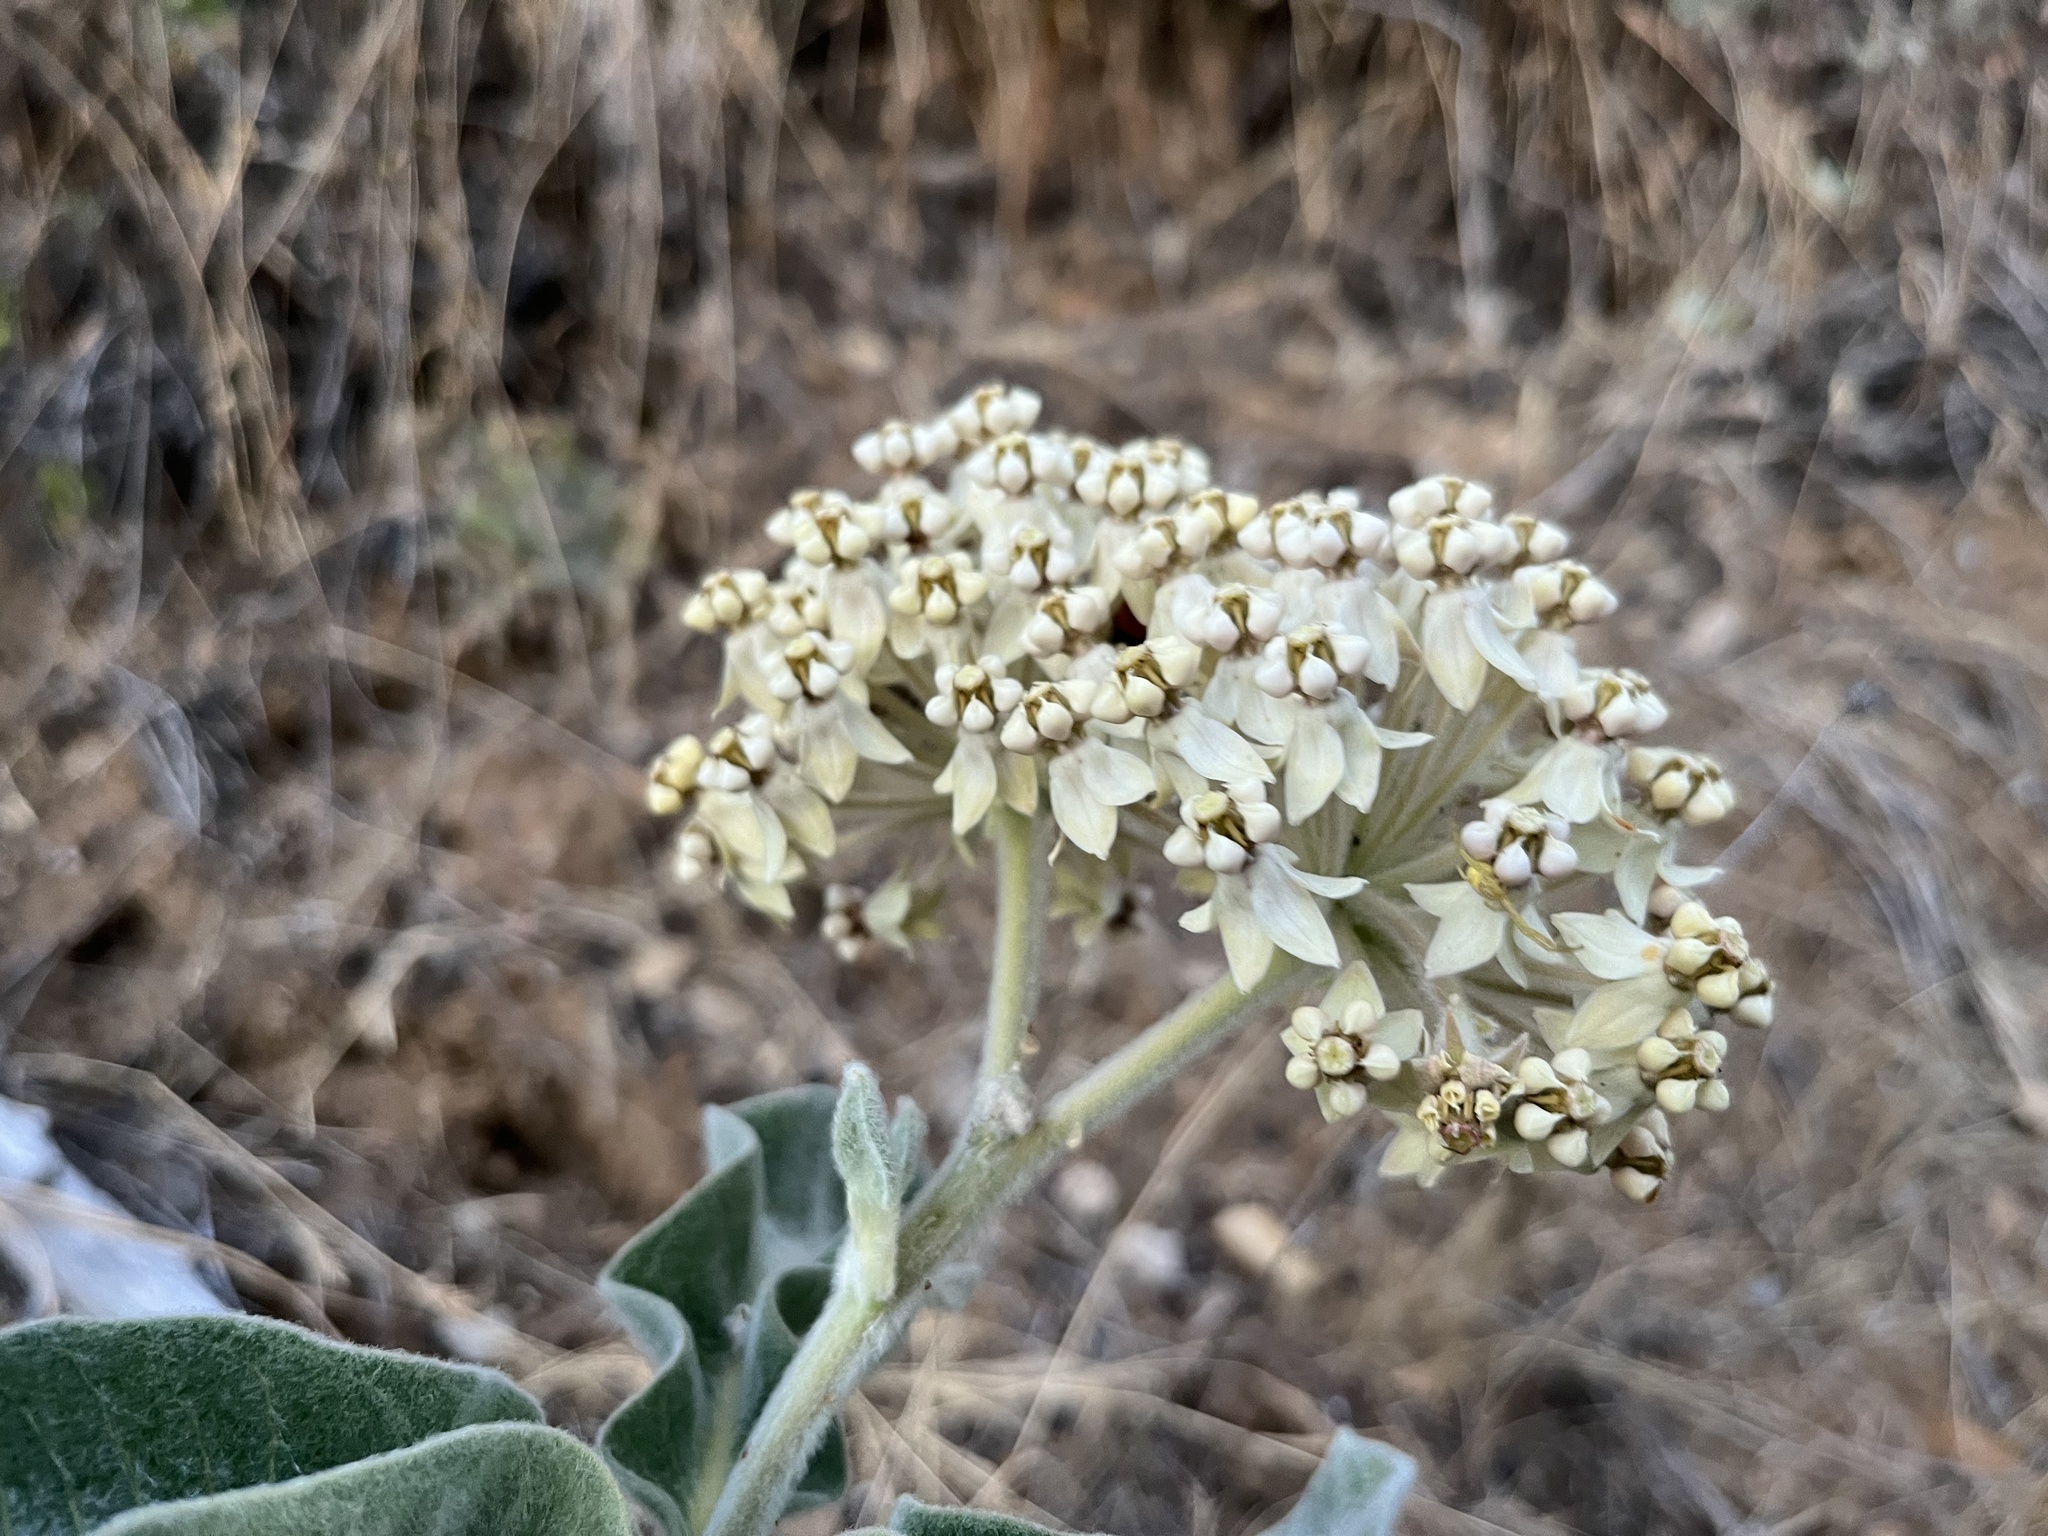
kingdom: Plantae
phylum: Tracheophyta
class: Magnoliopsida
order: Gentianales
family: Apocynaceae
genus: Asclepias
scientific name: Asclepias eriocarpa
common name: Indian milkweed
